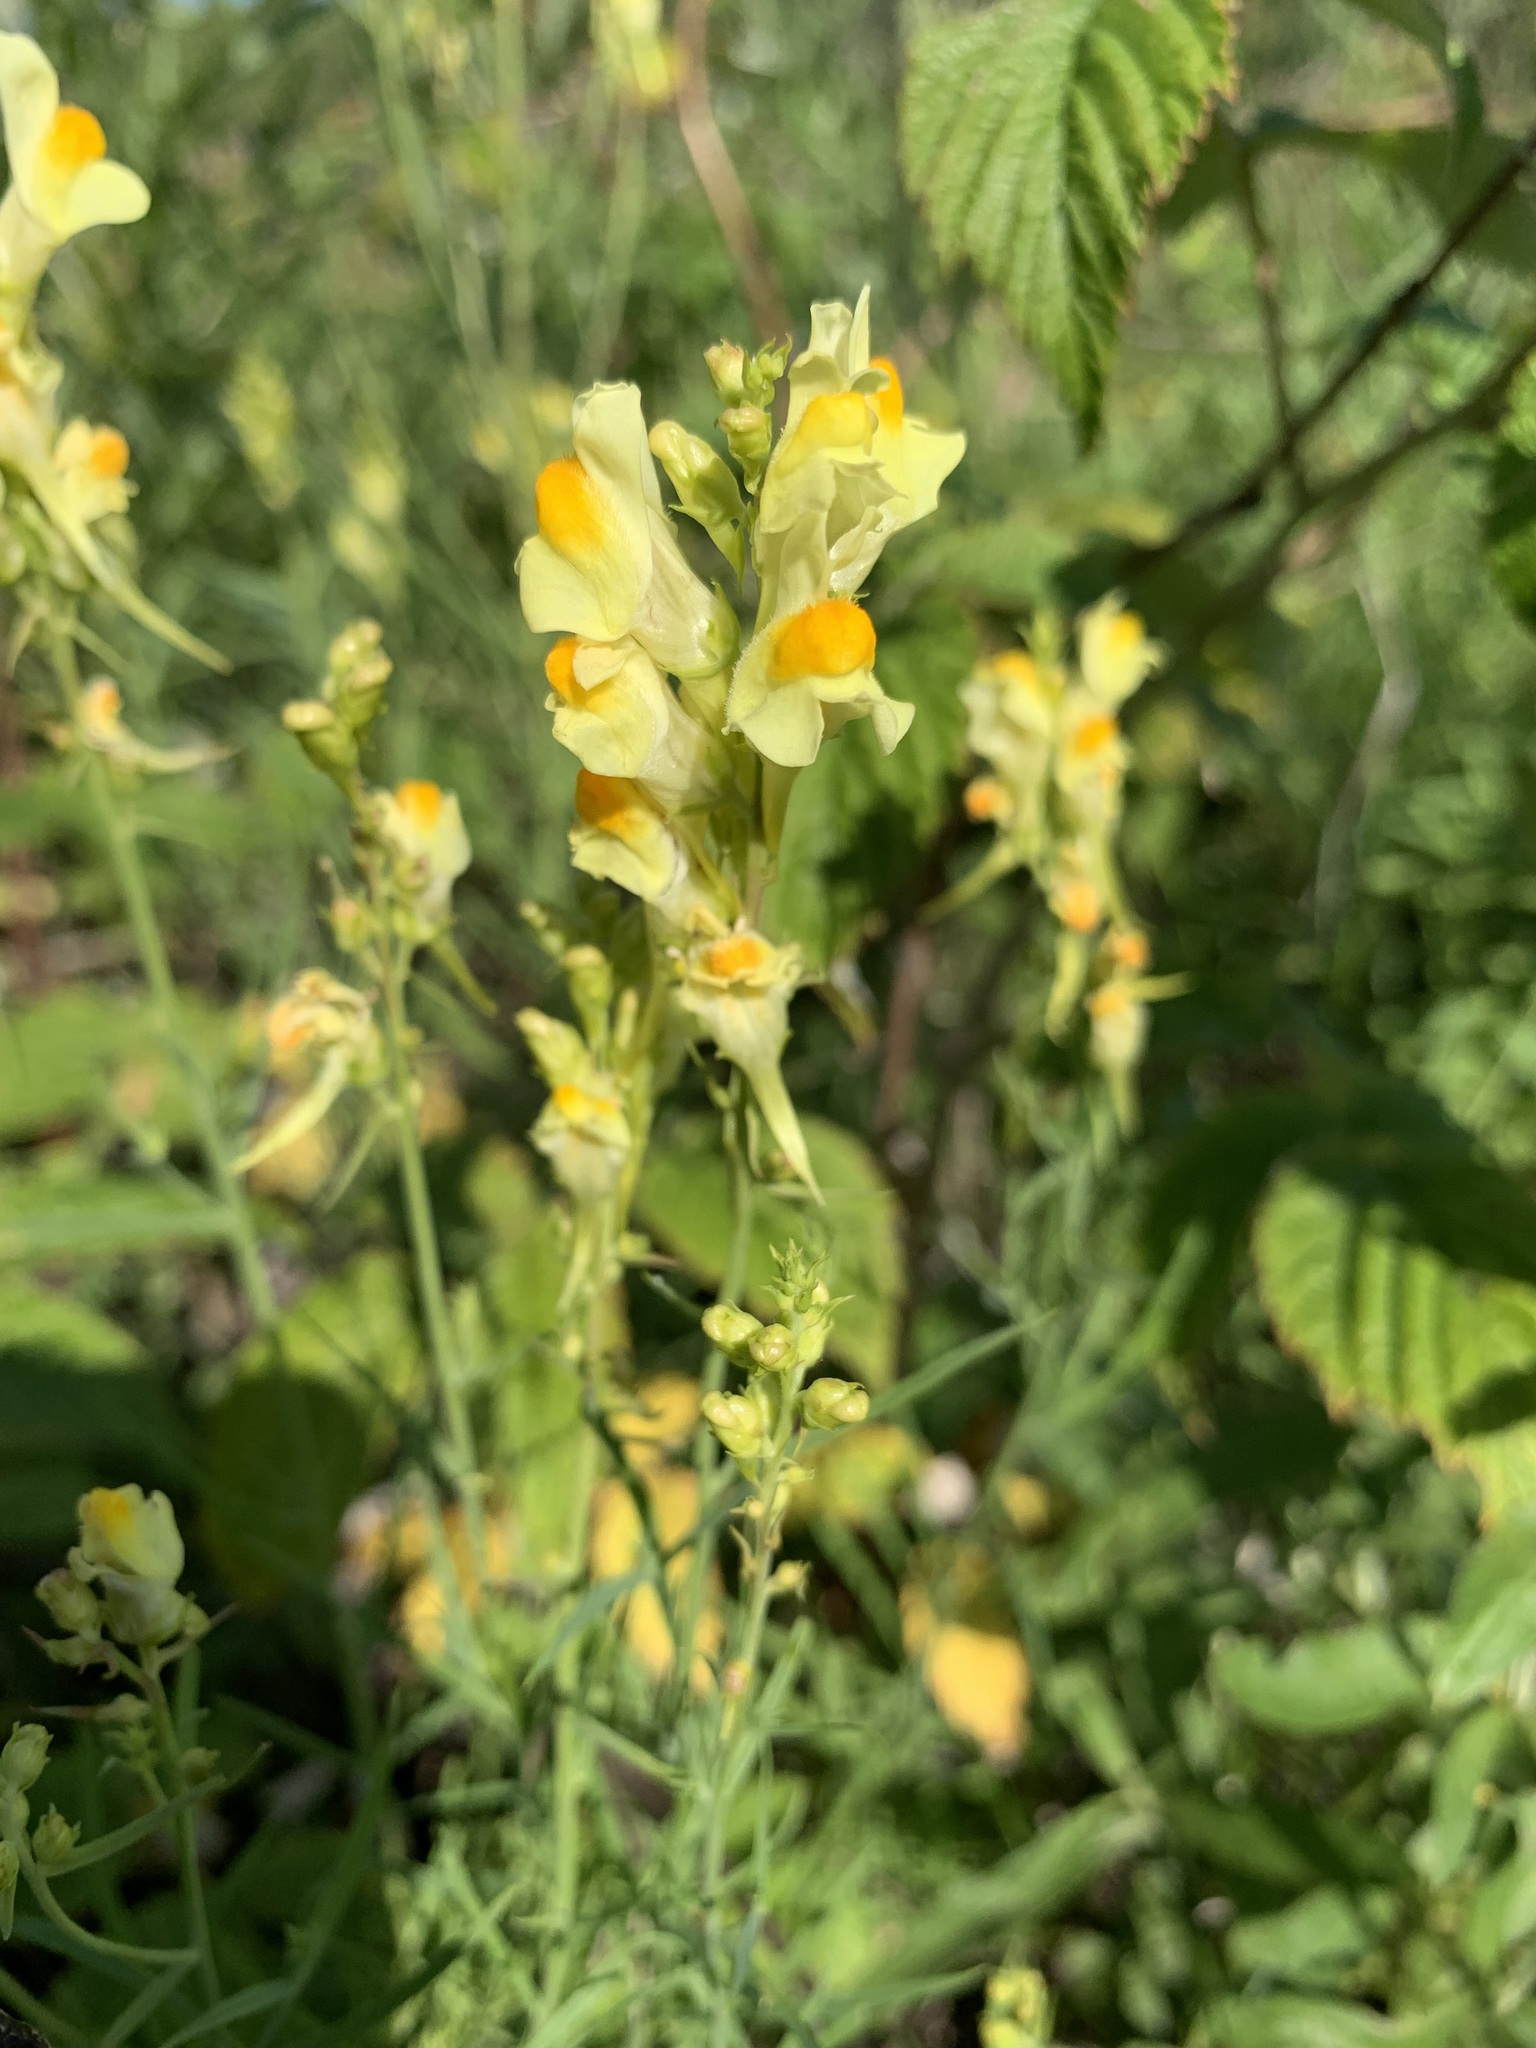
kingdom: Plantae
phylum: Tracheophyta
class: Magnoliopsida
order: Lamiales
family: Plantaginaceae
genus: Linaria
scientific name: Linaria vulgaris
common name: Butter and eggs
